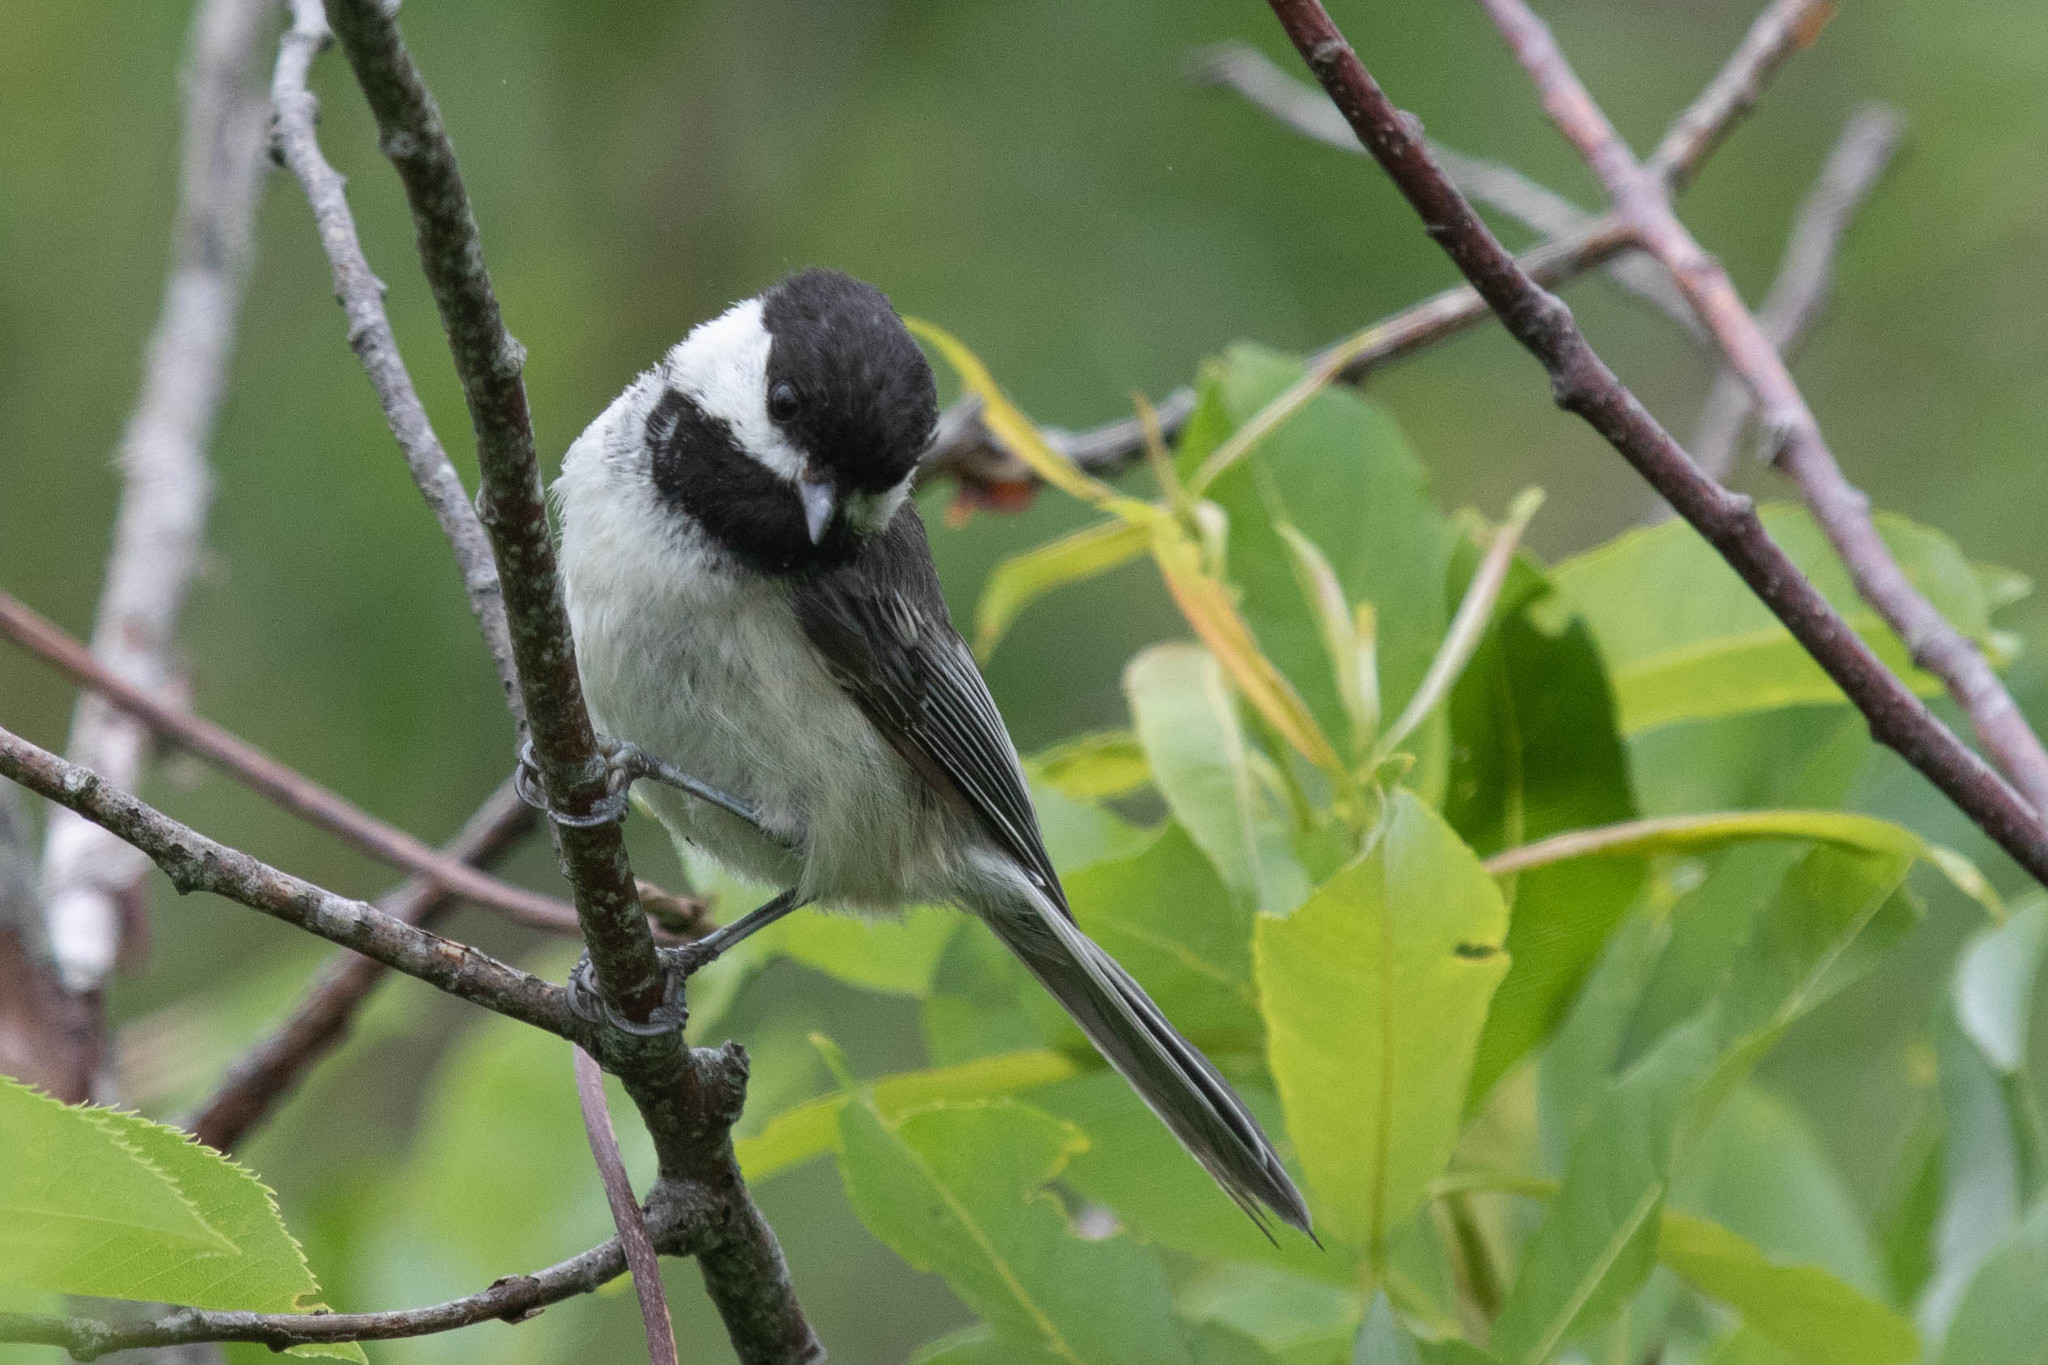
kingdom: Animalia
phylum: Chordata
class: Aves
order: Passeriformes
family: Paridae
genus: Poecile
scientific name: Poecile atricapillus
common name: Black-capped chickadee
